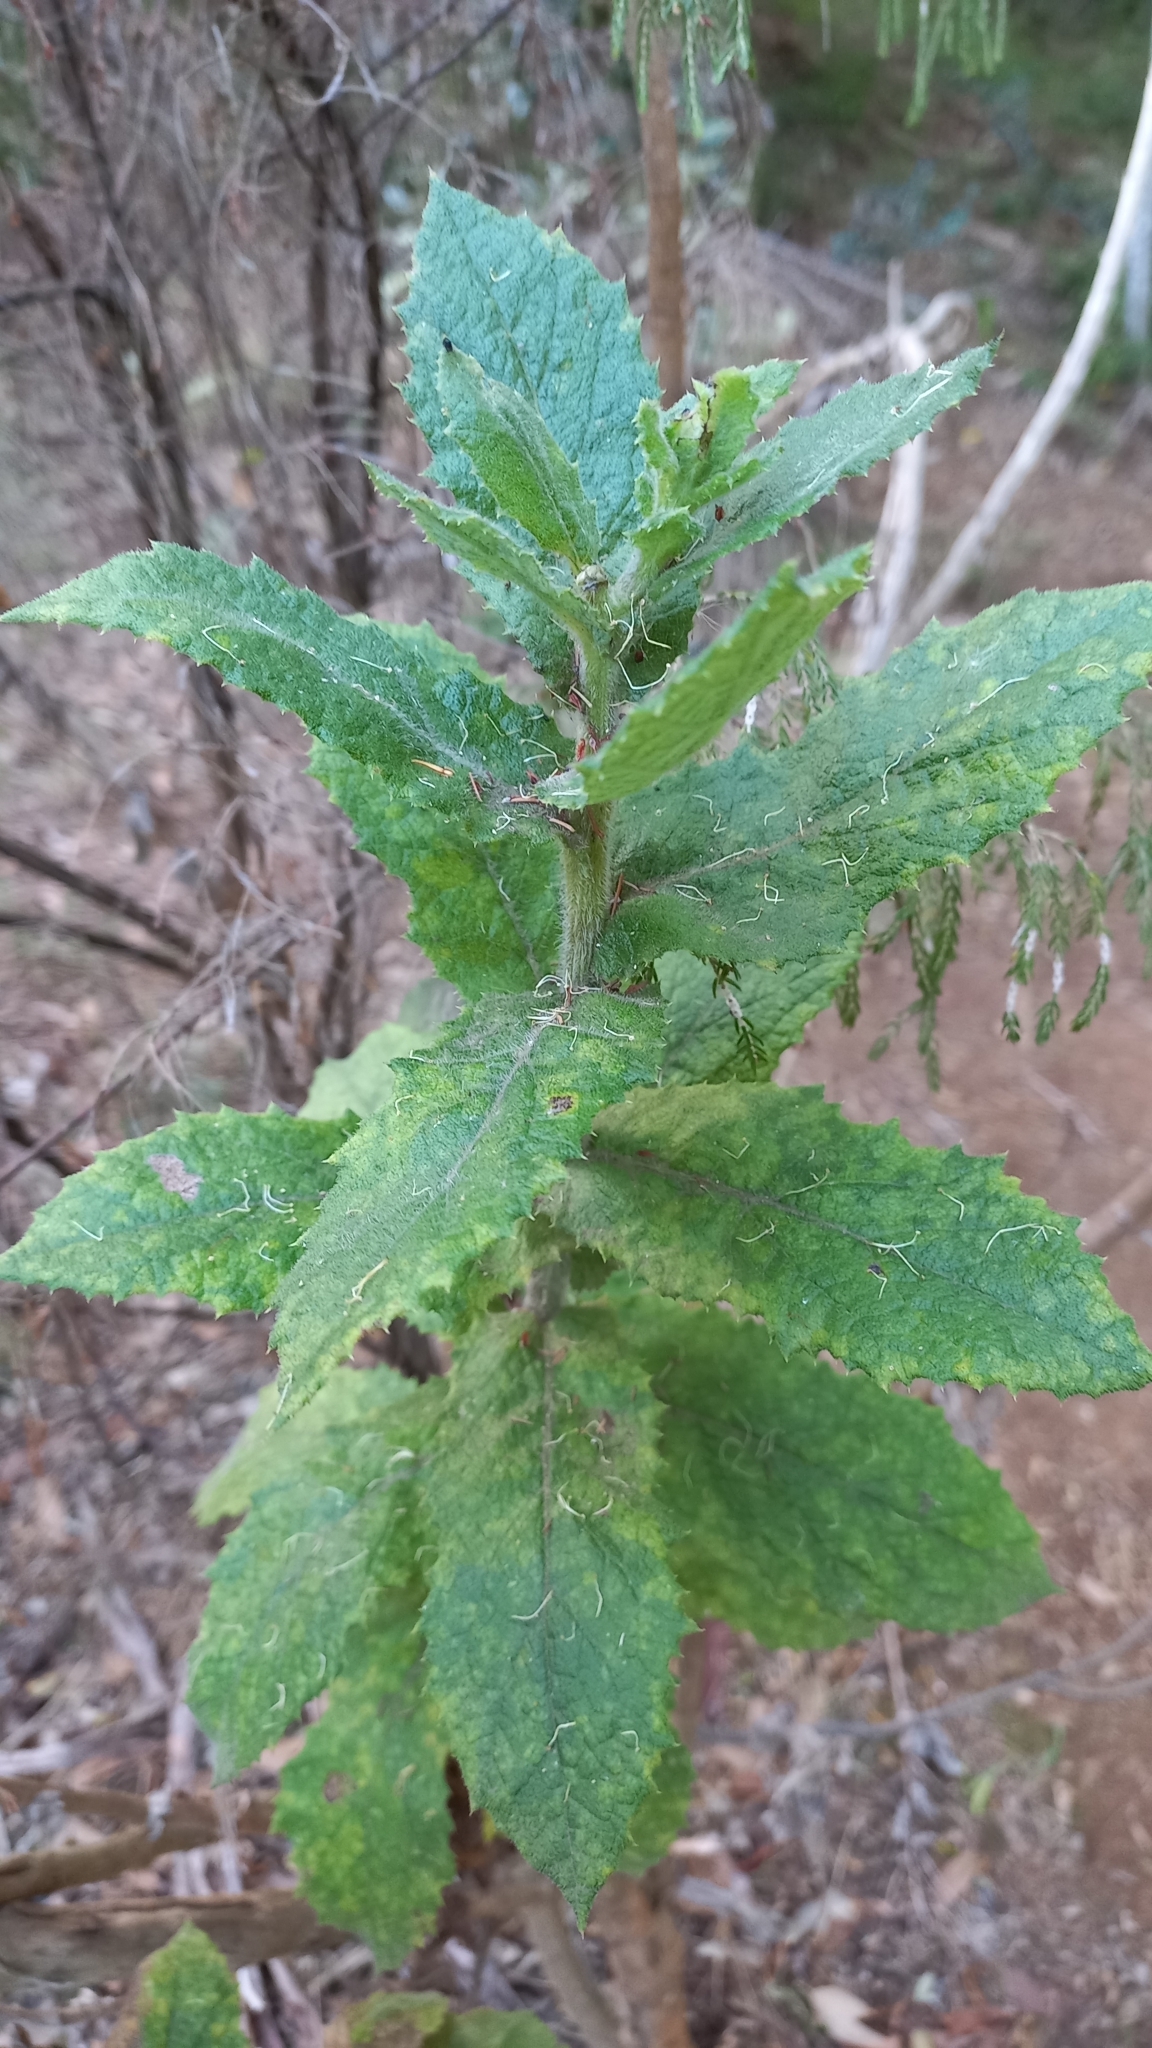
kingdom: Plantae
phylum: Tracheophyta
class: Magnoliopsida
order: Asterales
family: Asteraceae
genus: Senecio
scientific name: Senecio rigidus
